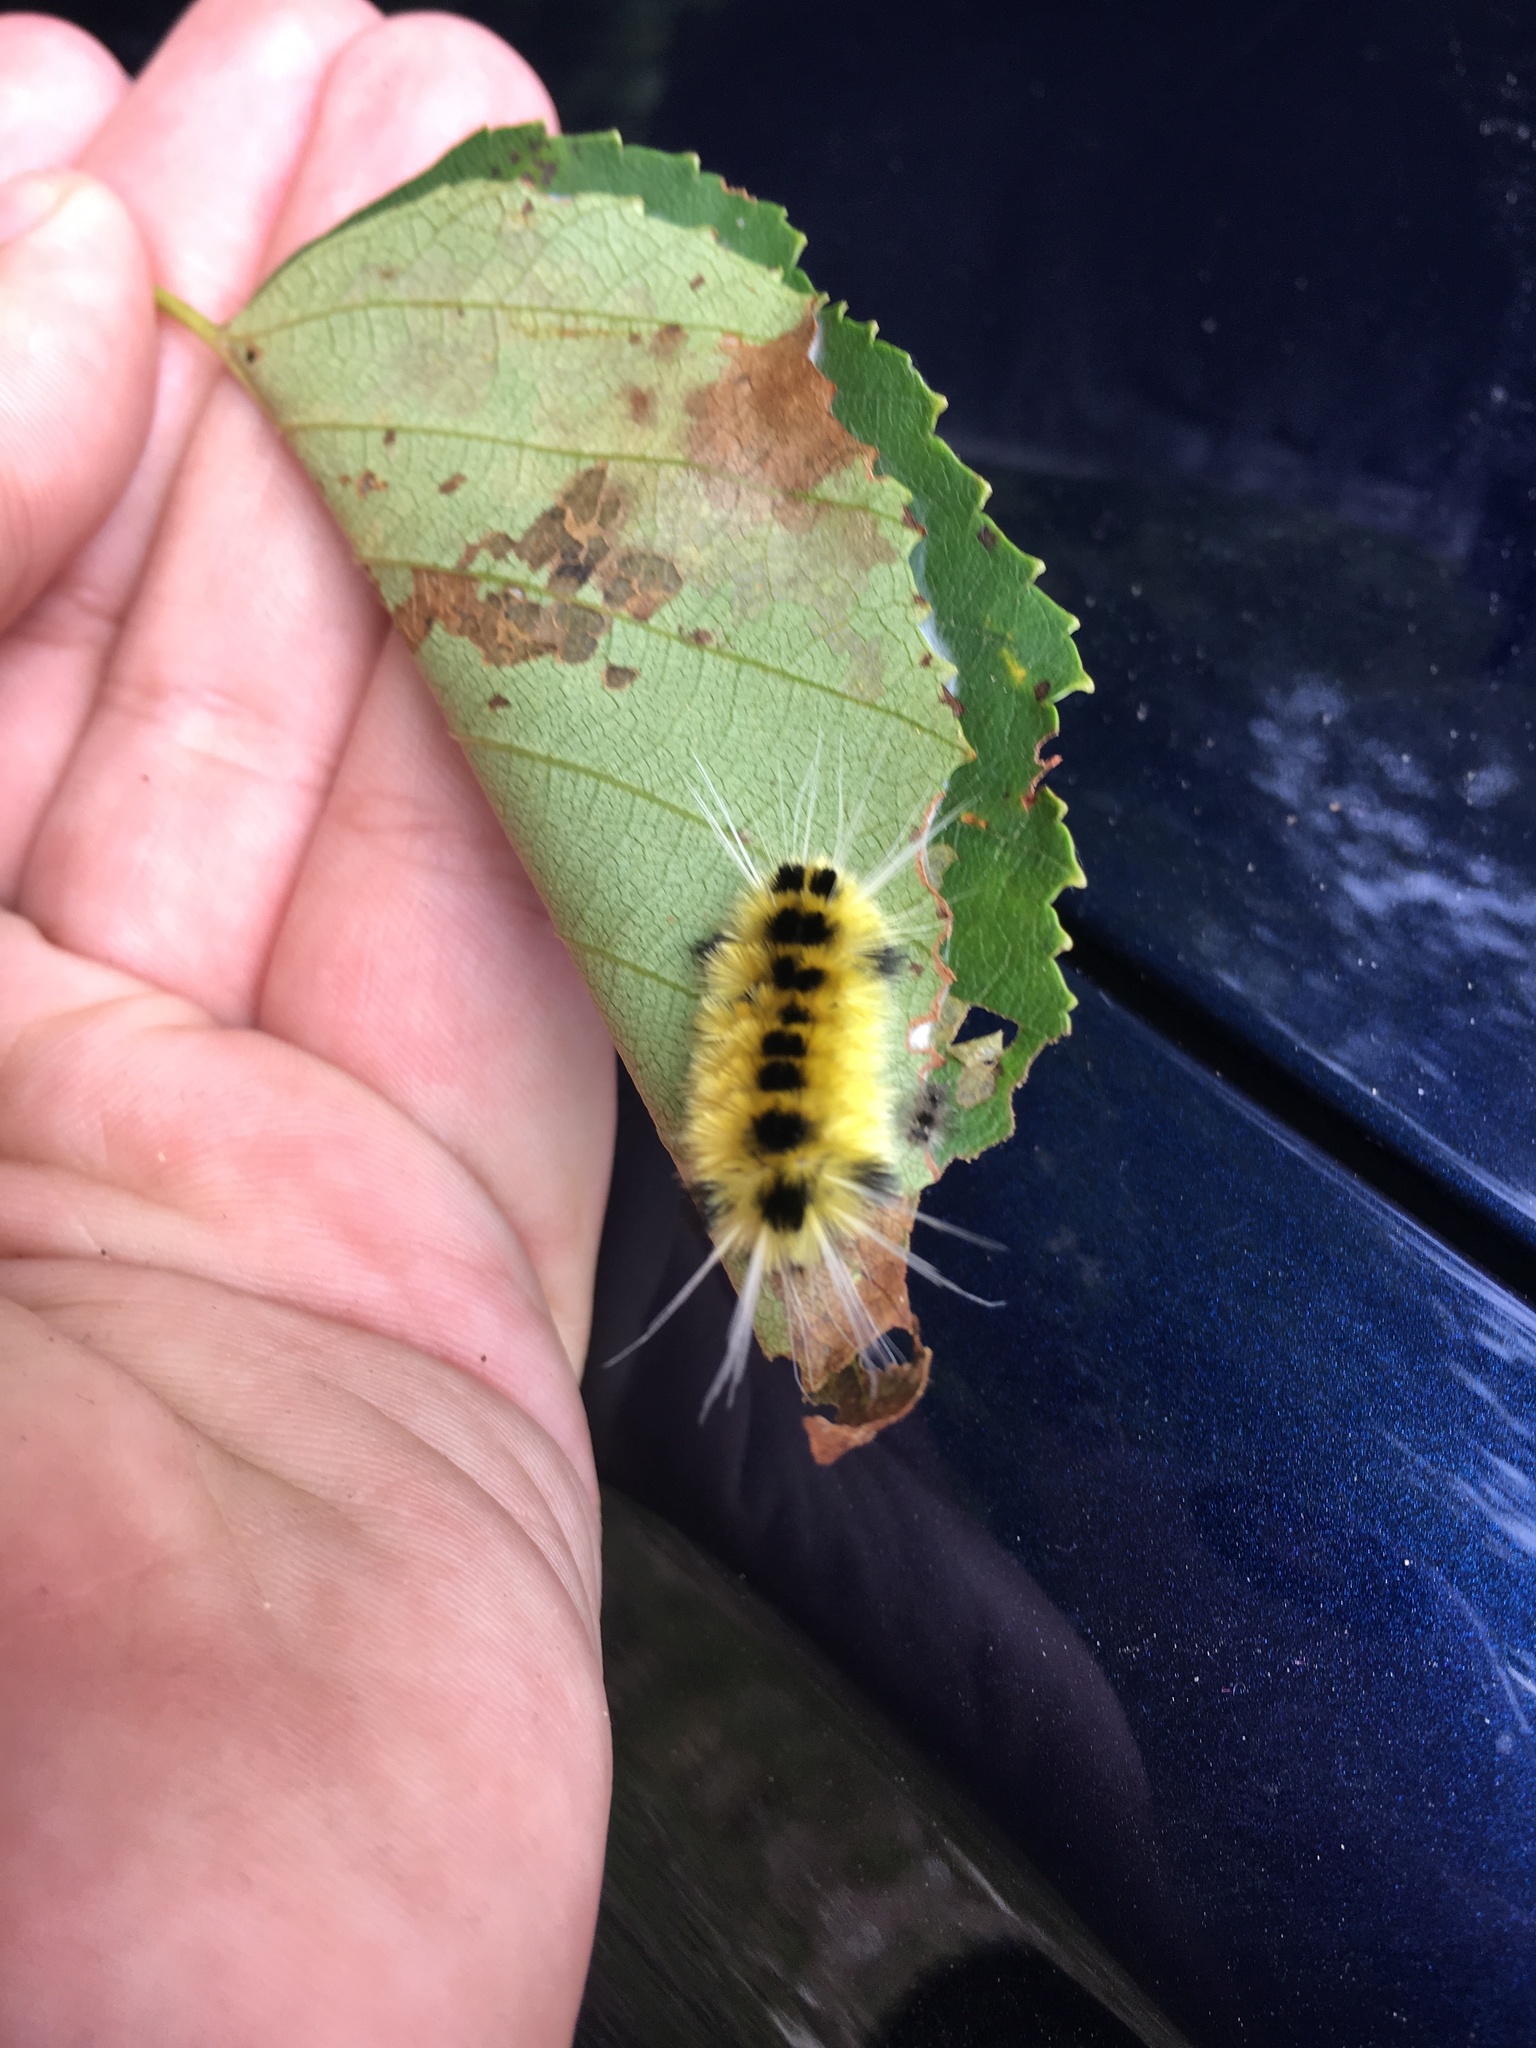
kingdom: Animalia
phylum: Arthropoda
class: Insecta
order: Lepidoptera
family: Erebidae
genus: Lophocampa
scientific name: Lophocampa maculata
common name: Spotted tussock moth
